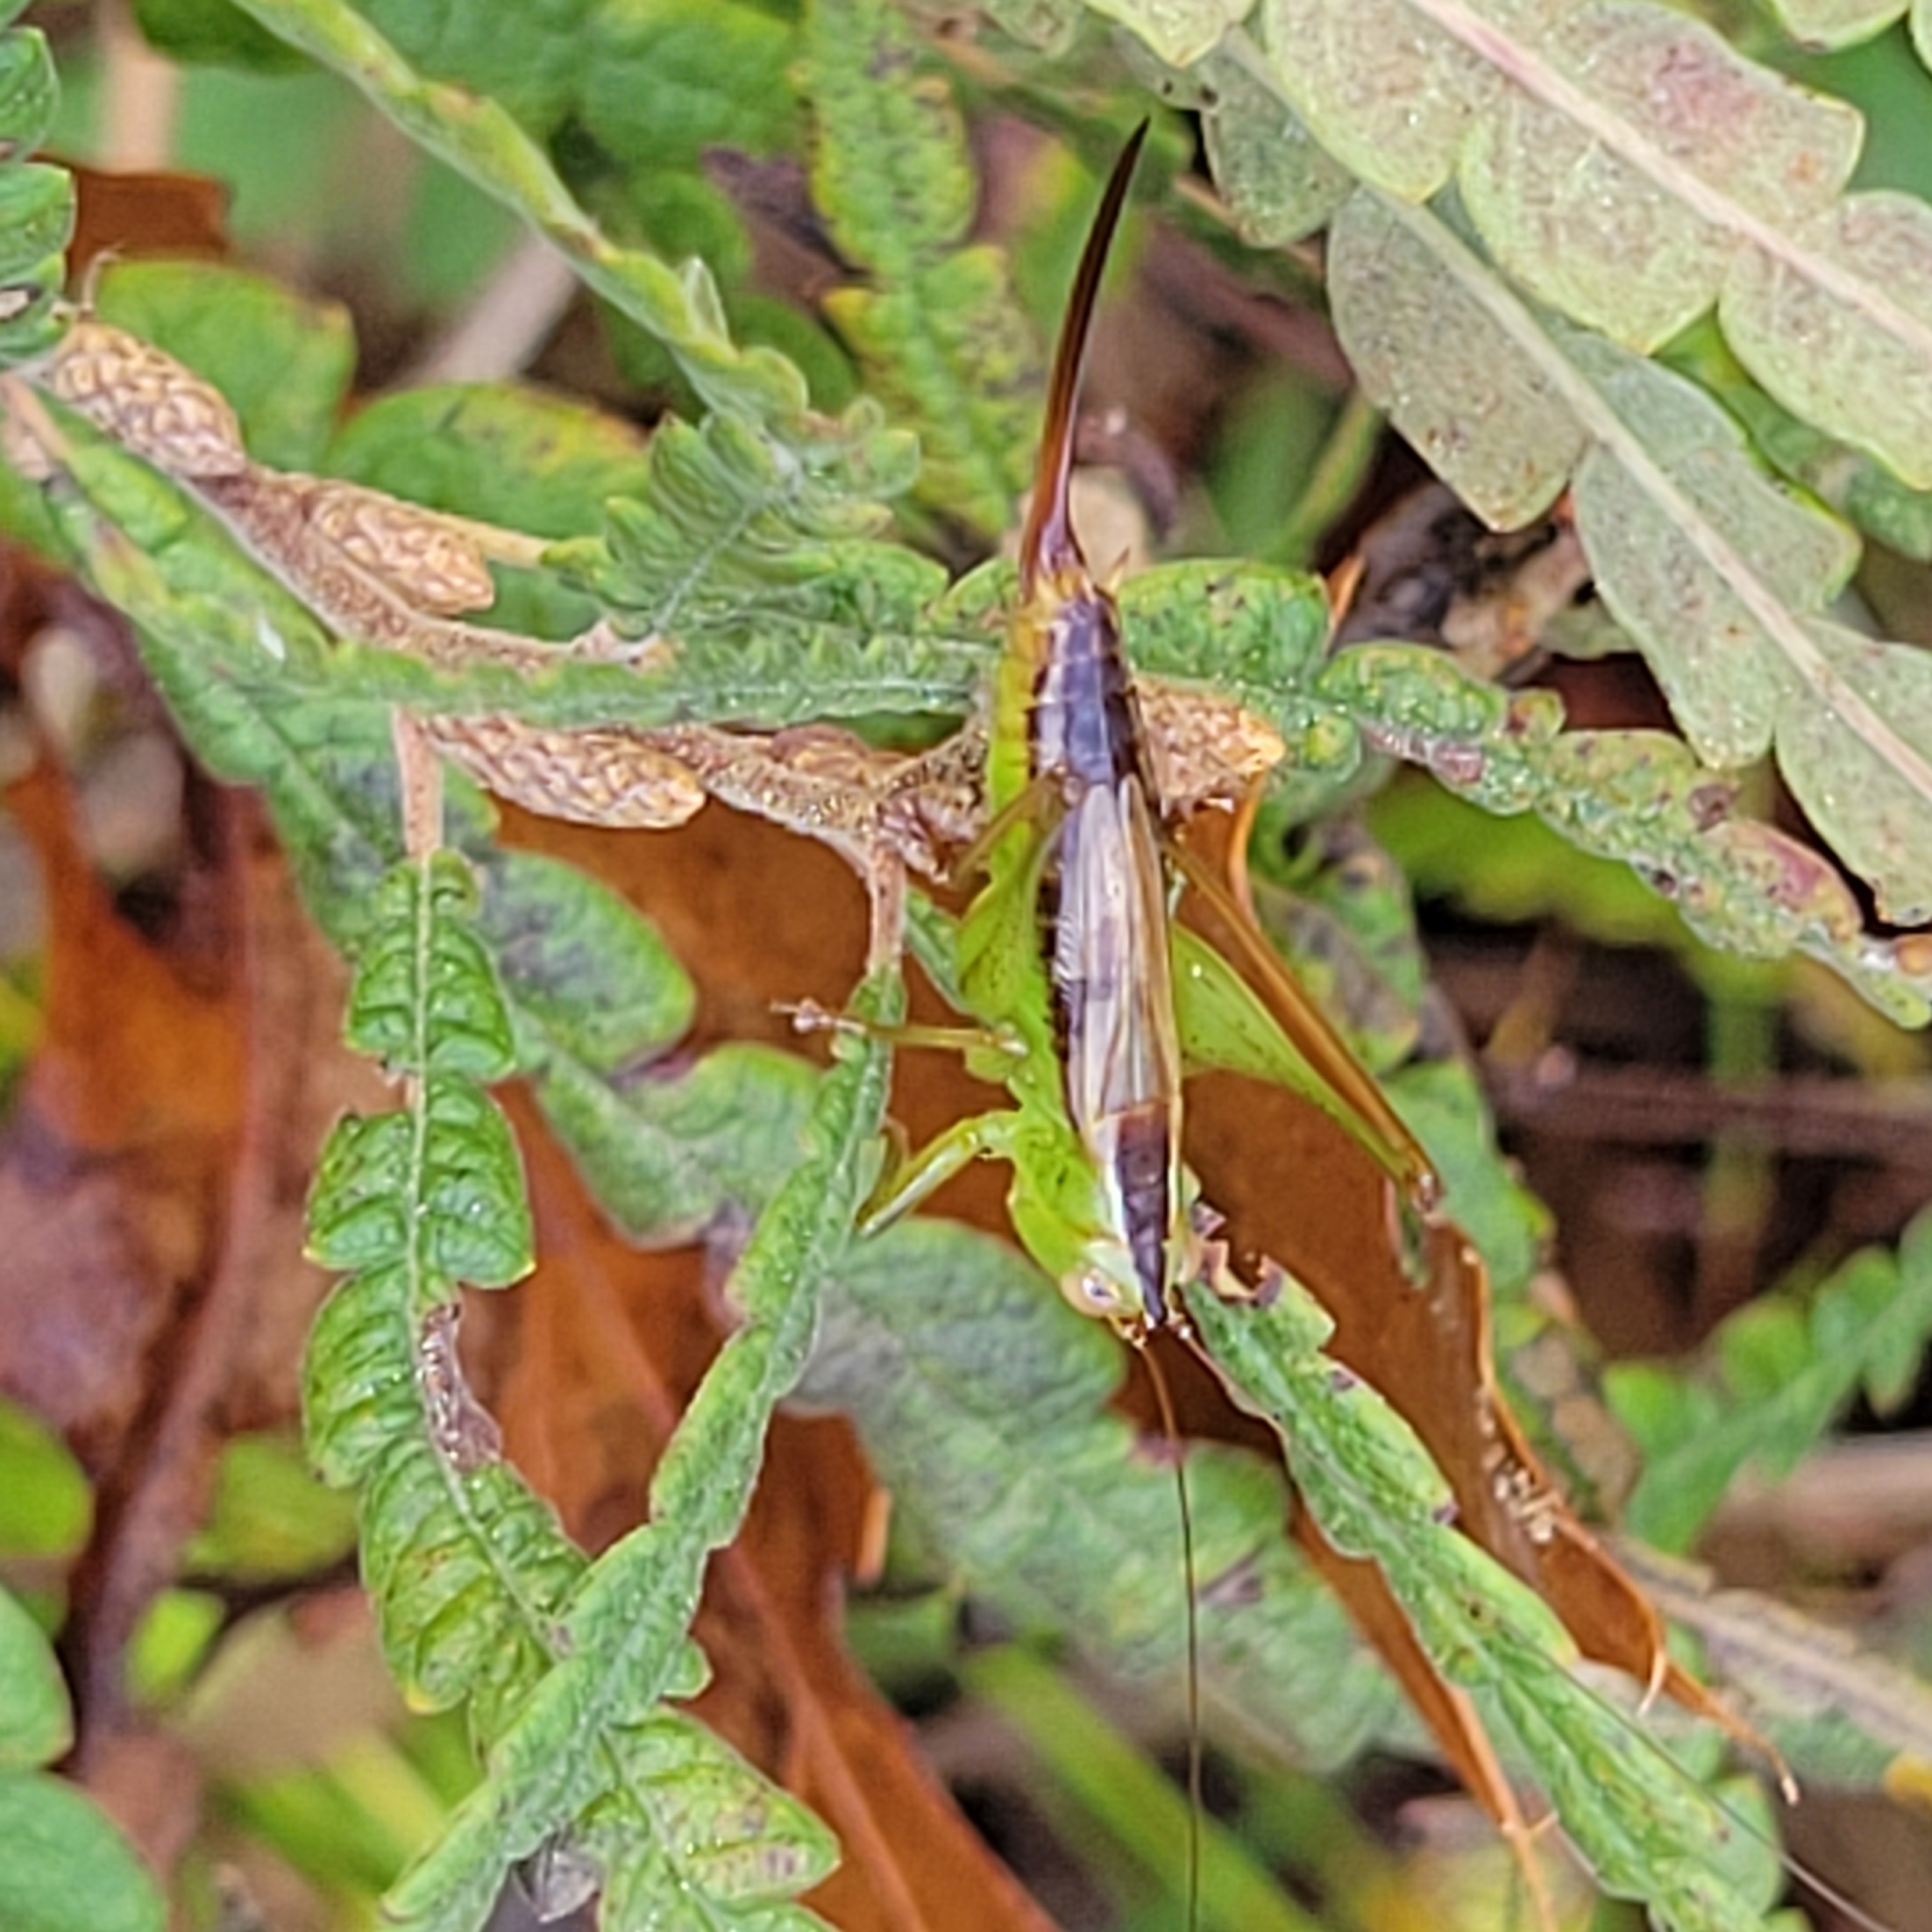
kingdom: Animalia
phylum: Arthropoda
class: Insecta
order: Orthoptera
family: Tettigoniidae
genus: Conocephalus
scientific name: Conocephalus brevipennis
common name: Short-winged meadow katydid
